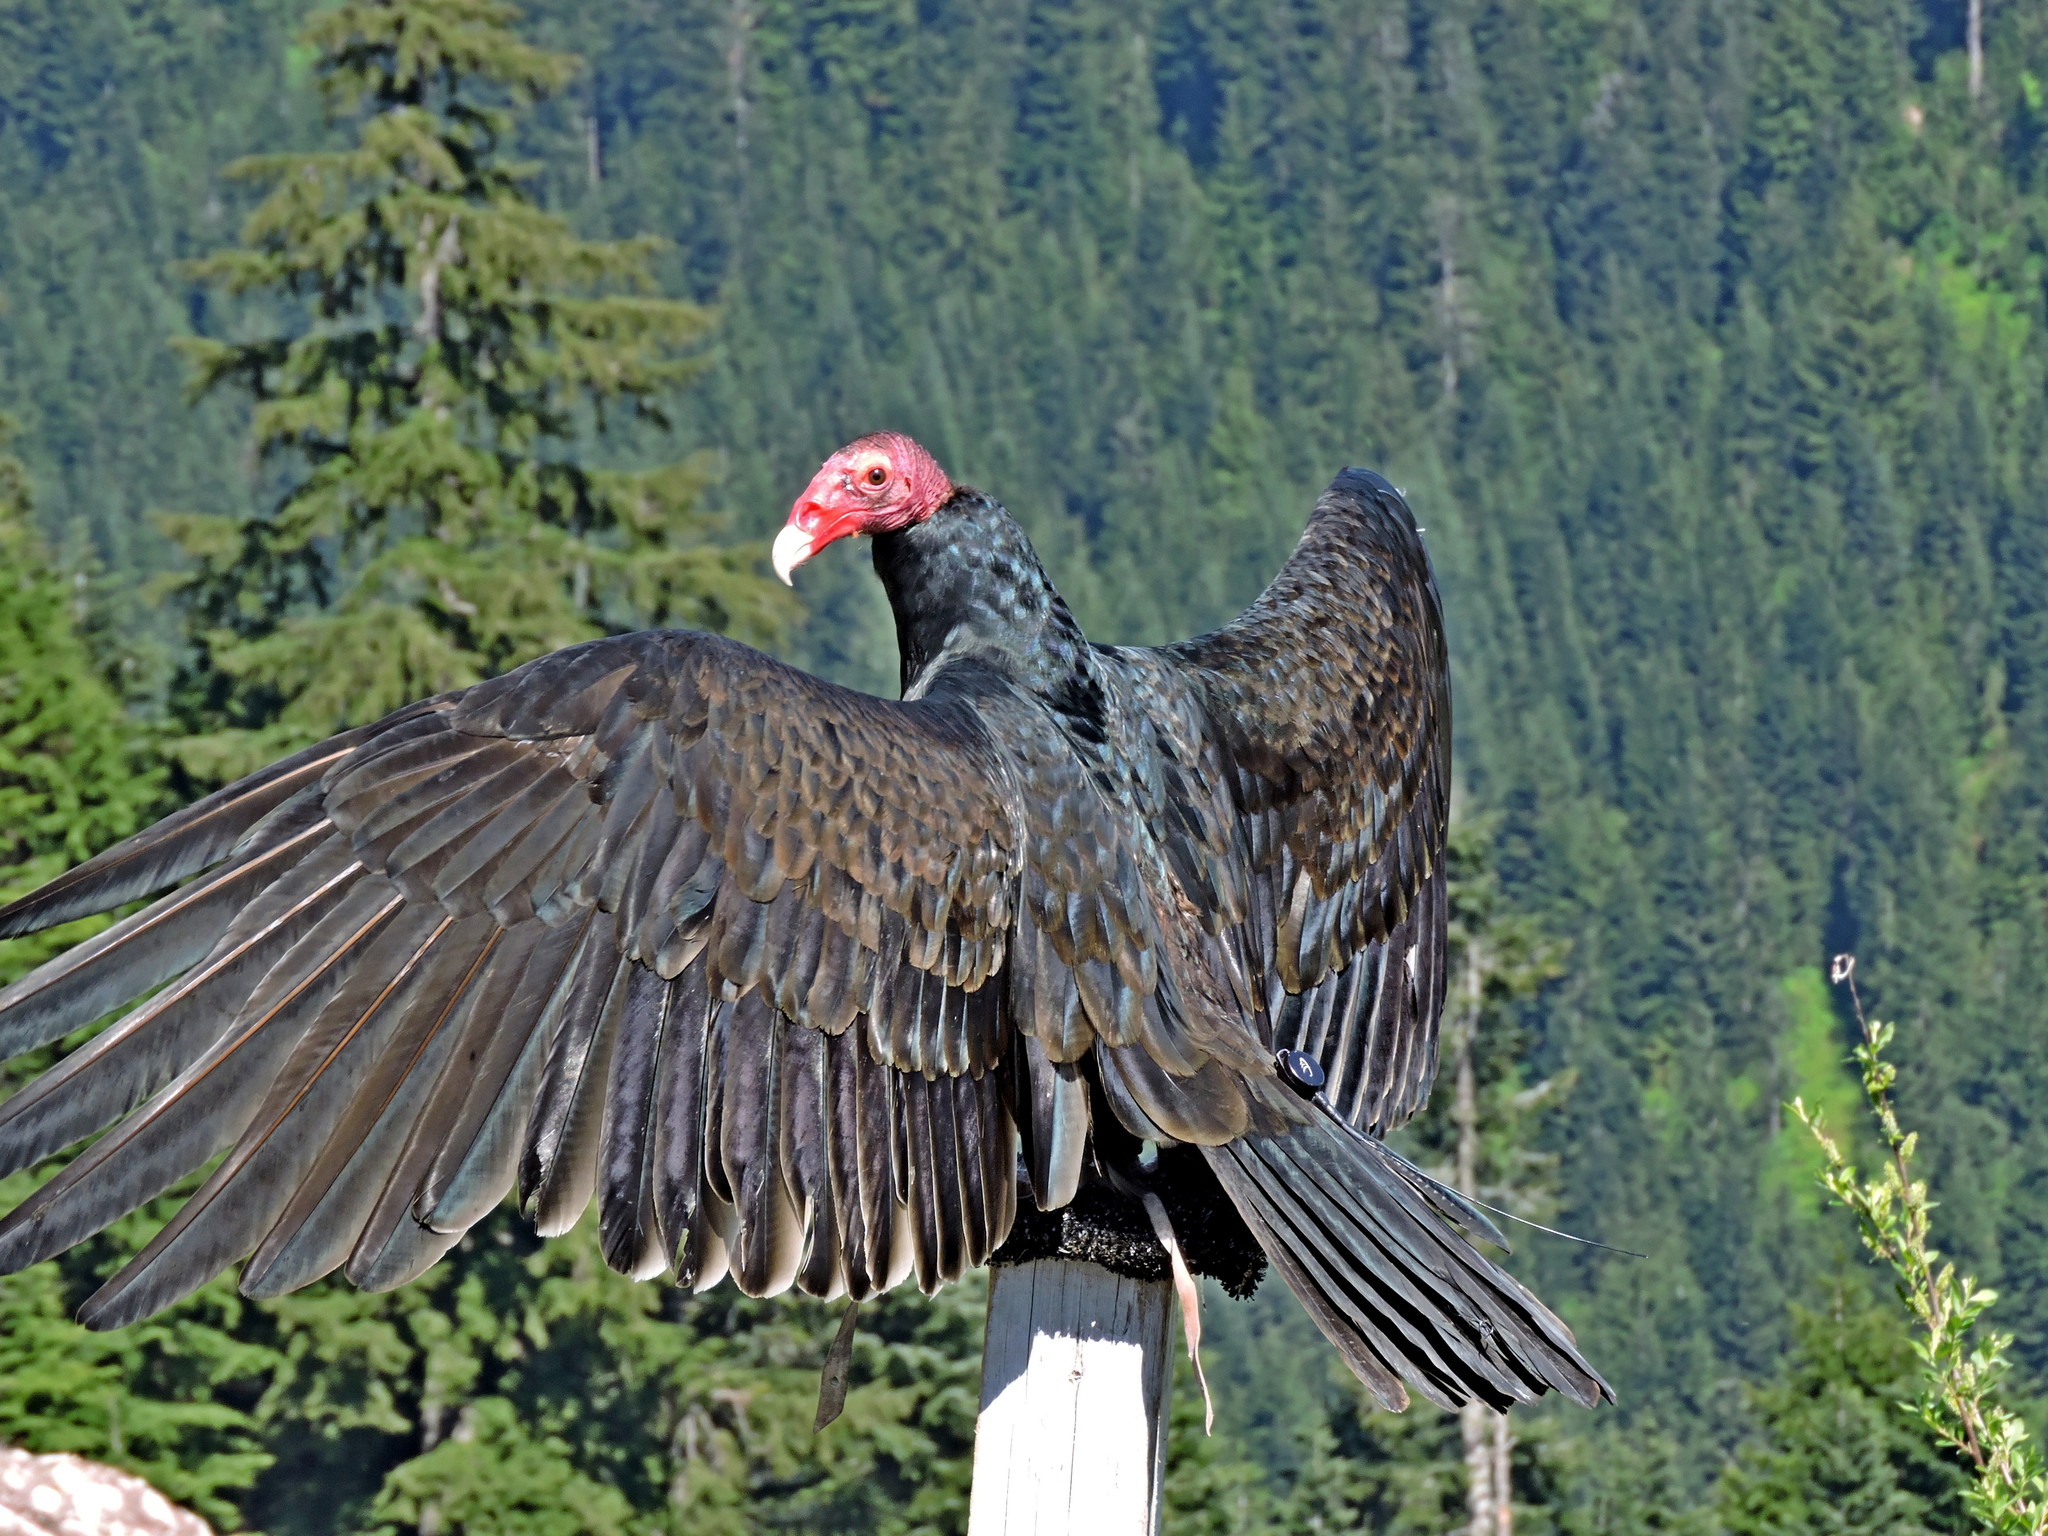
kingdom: Animalia
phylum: Chordata
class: Aves
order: Accipitriformes
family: Cathartidae
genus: Cathartes
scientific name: Cathartes aura
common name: Turkey vulture
